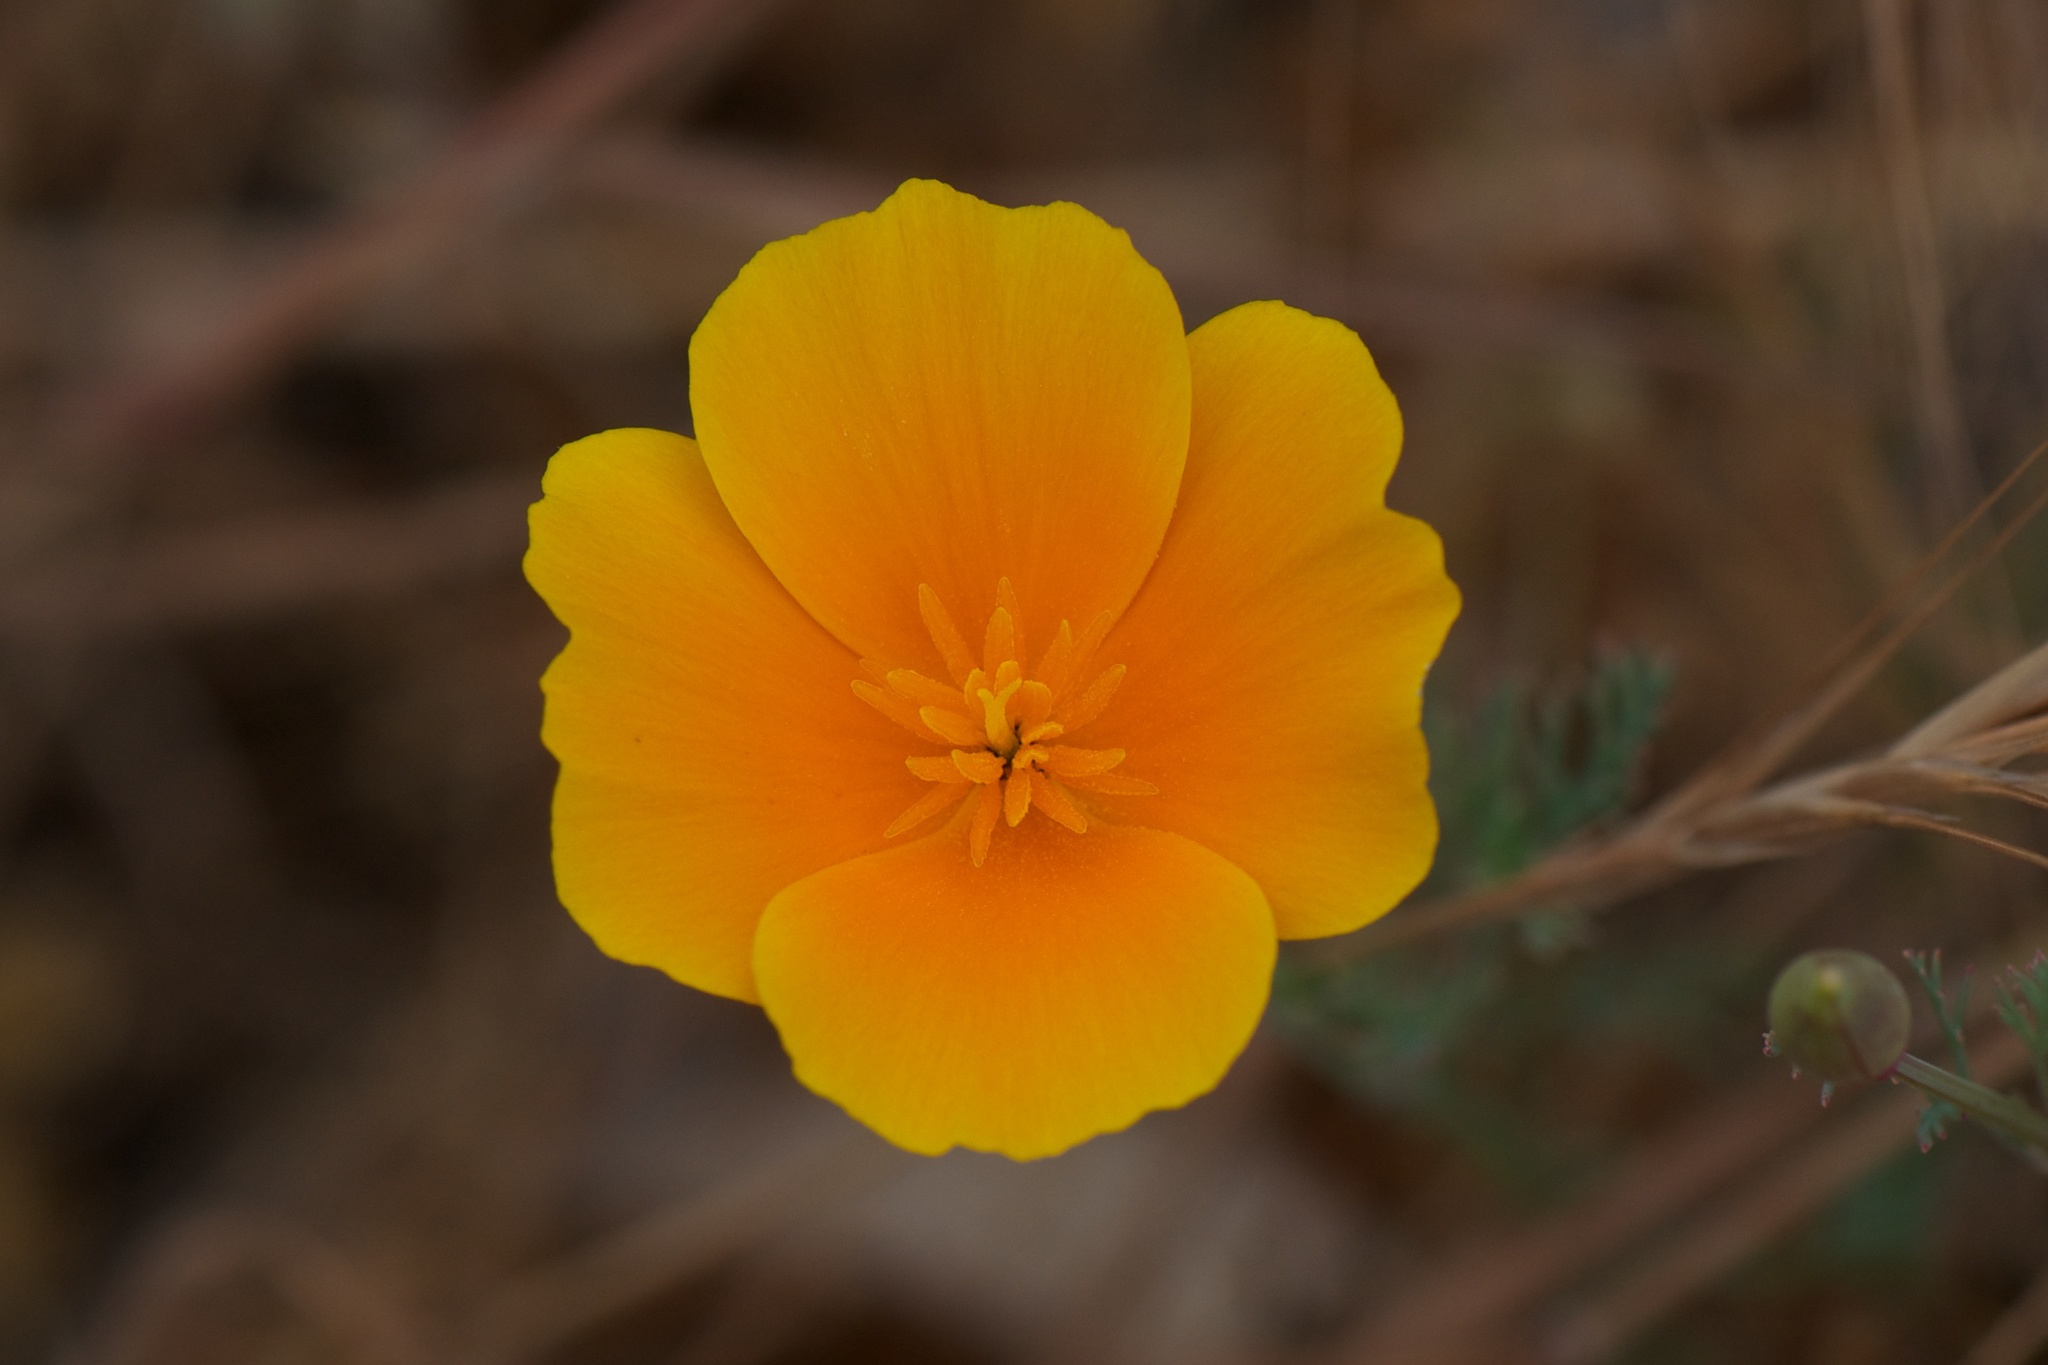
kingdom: Plantae
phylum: Tracheophyta
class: Magnoliopsida
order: Ranunculales
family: Papaveraceae
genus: Eschscholzia
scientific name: Eschscholzia californica
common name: California poppy
